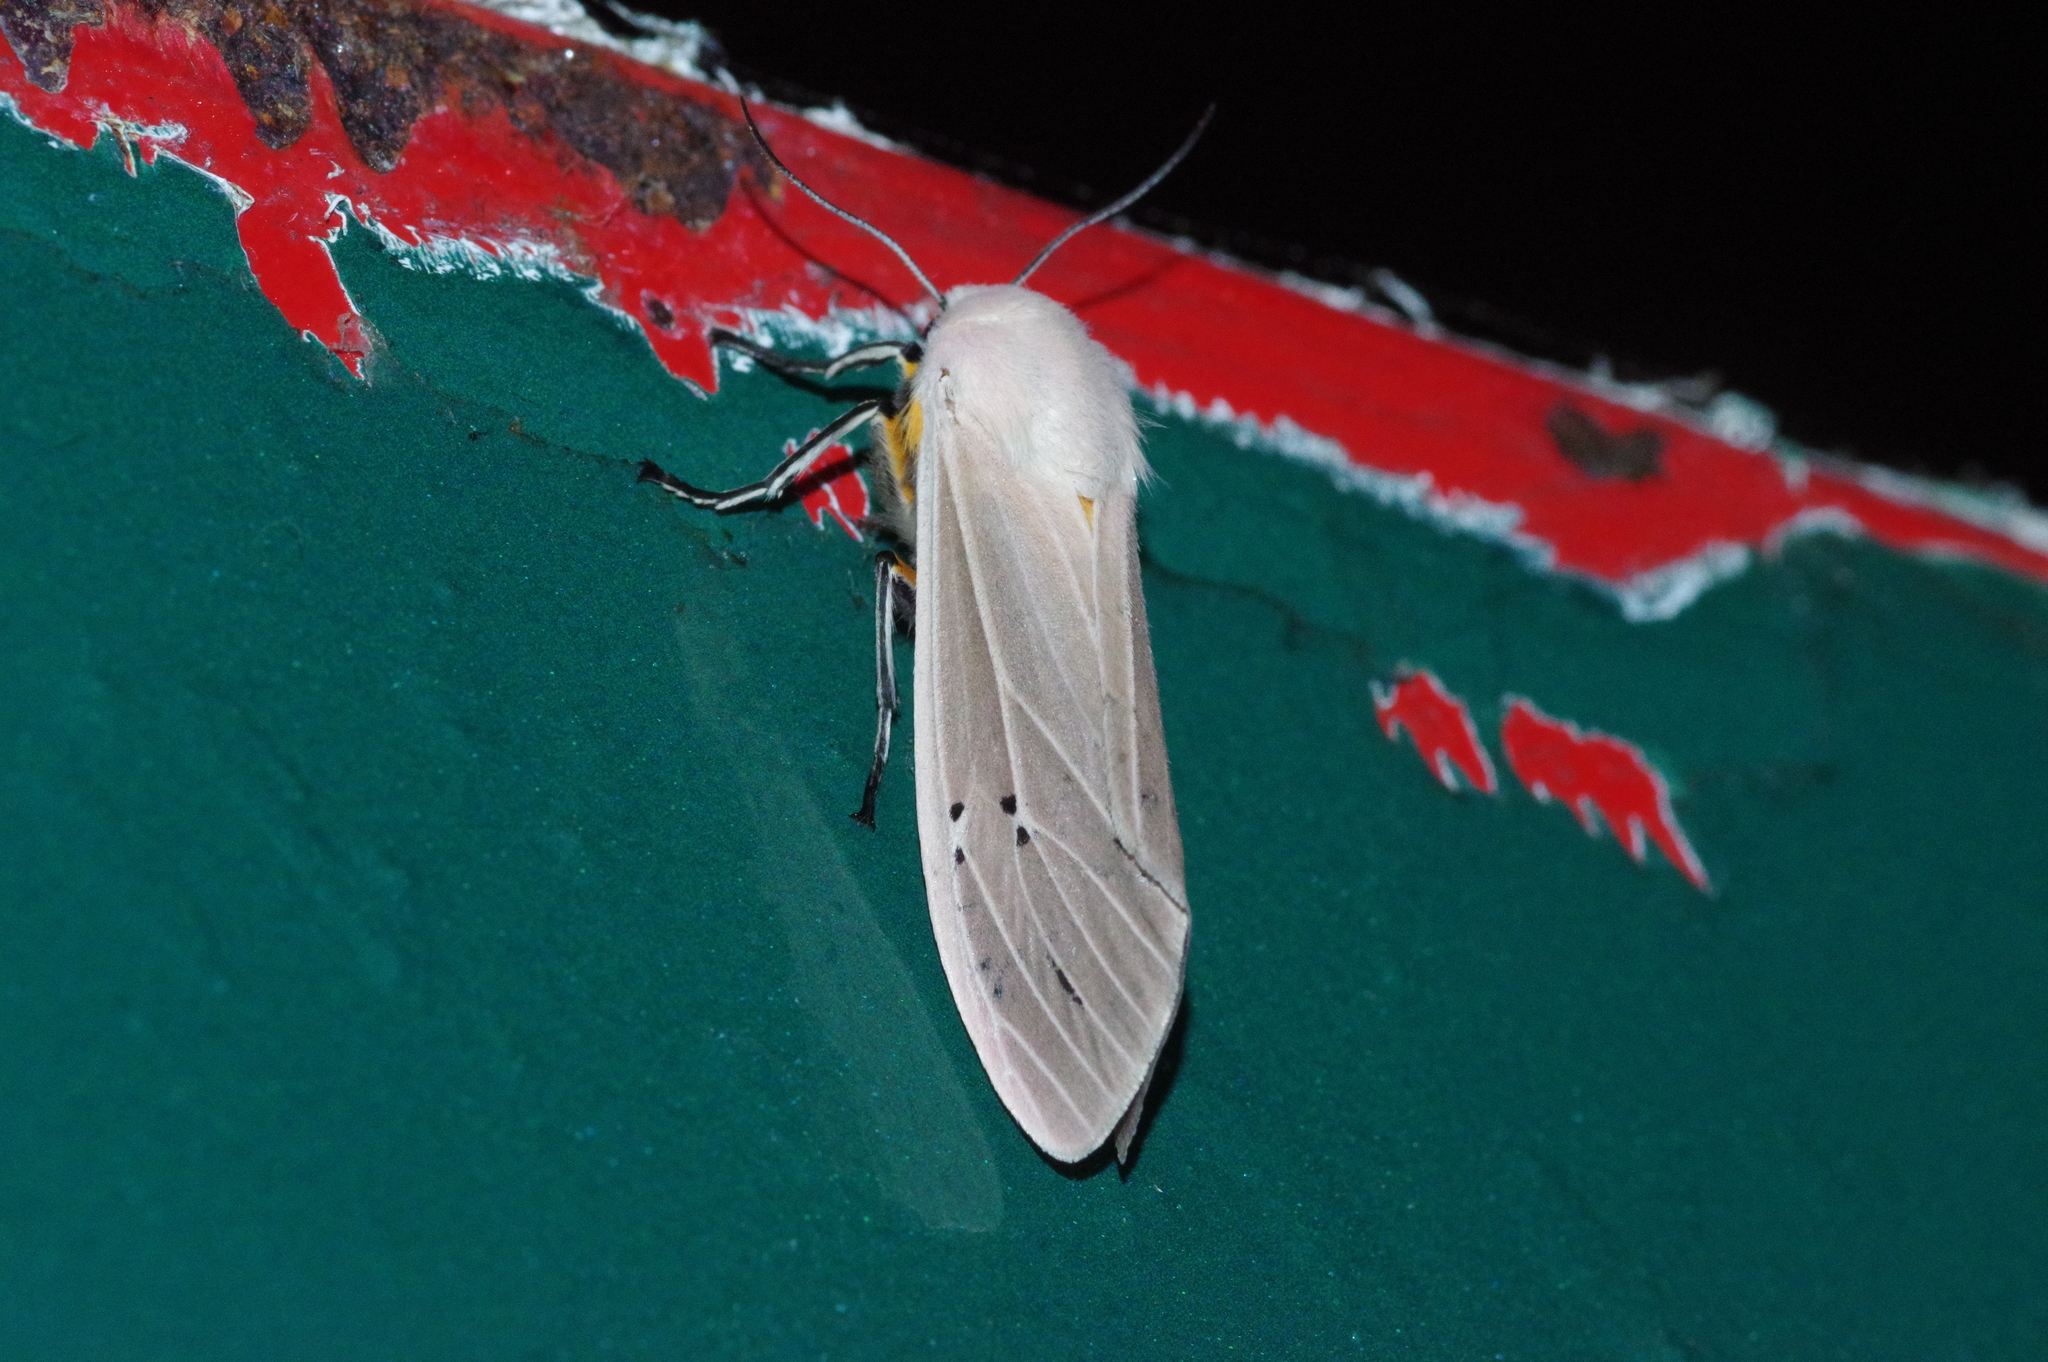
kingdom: Animalia
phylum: Arthropoda
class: Insecta
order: Lepidoptera
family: Erebidae
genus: Creatonotos
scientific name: Creatonotos transiens
